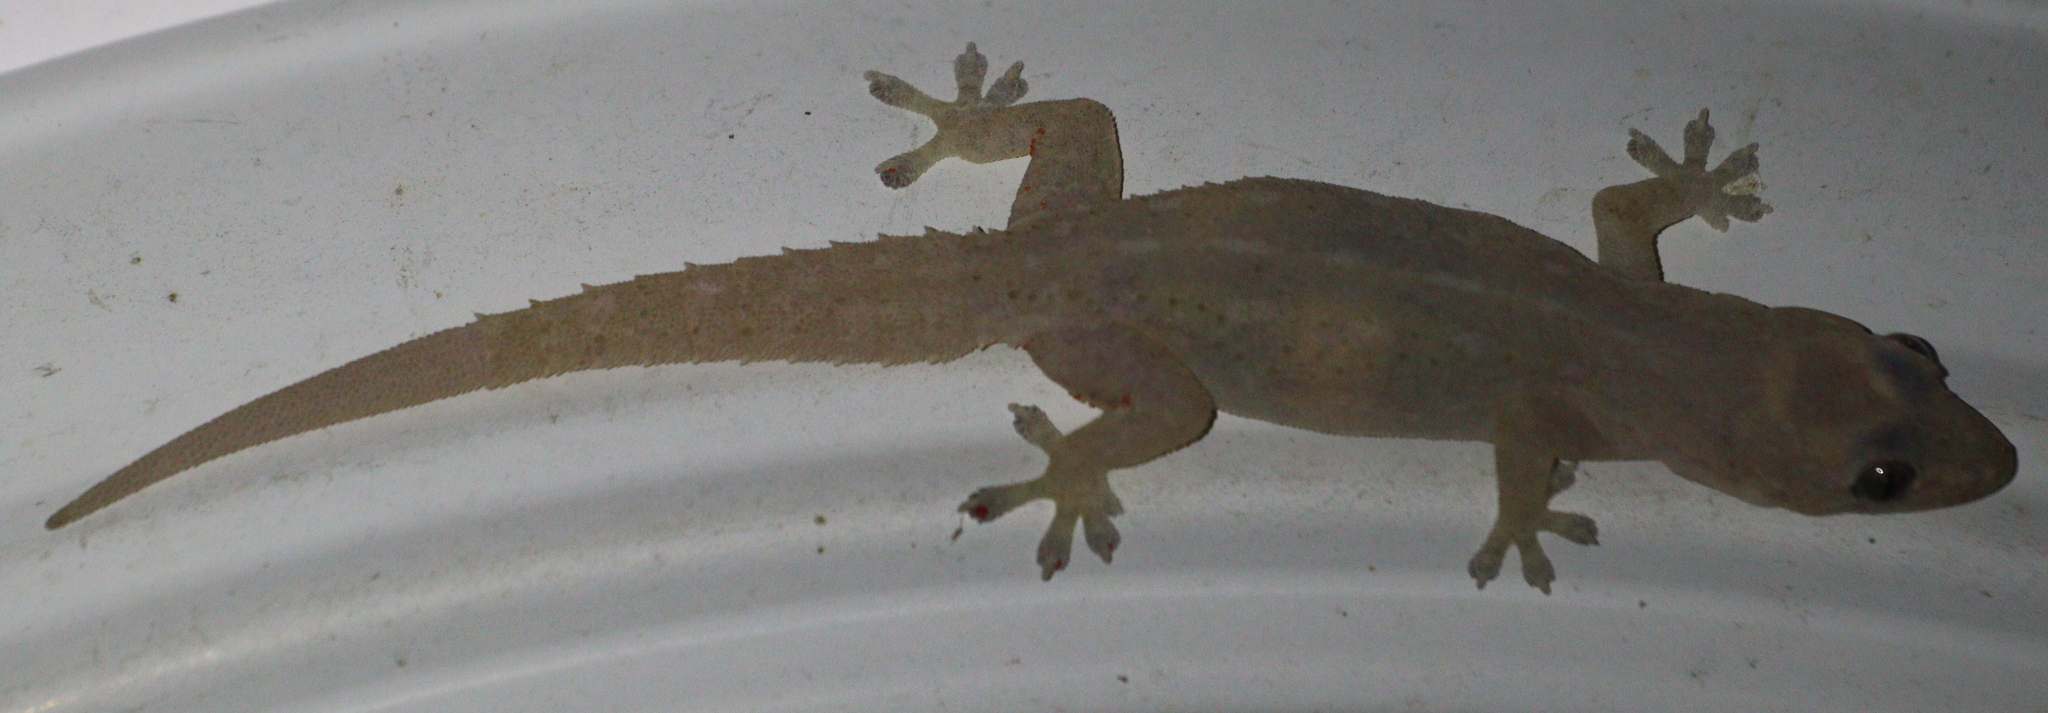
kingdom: Animalia
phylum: Chordata
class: Squamata
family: Gekkonidae
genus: Hemidactylus
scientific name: Hemidactylus frenatus
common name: Common house gecko
